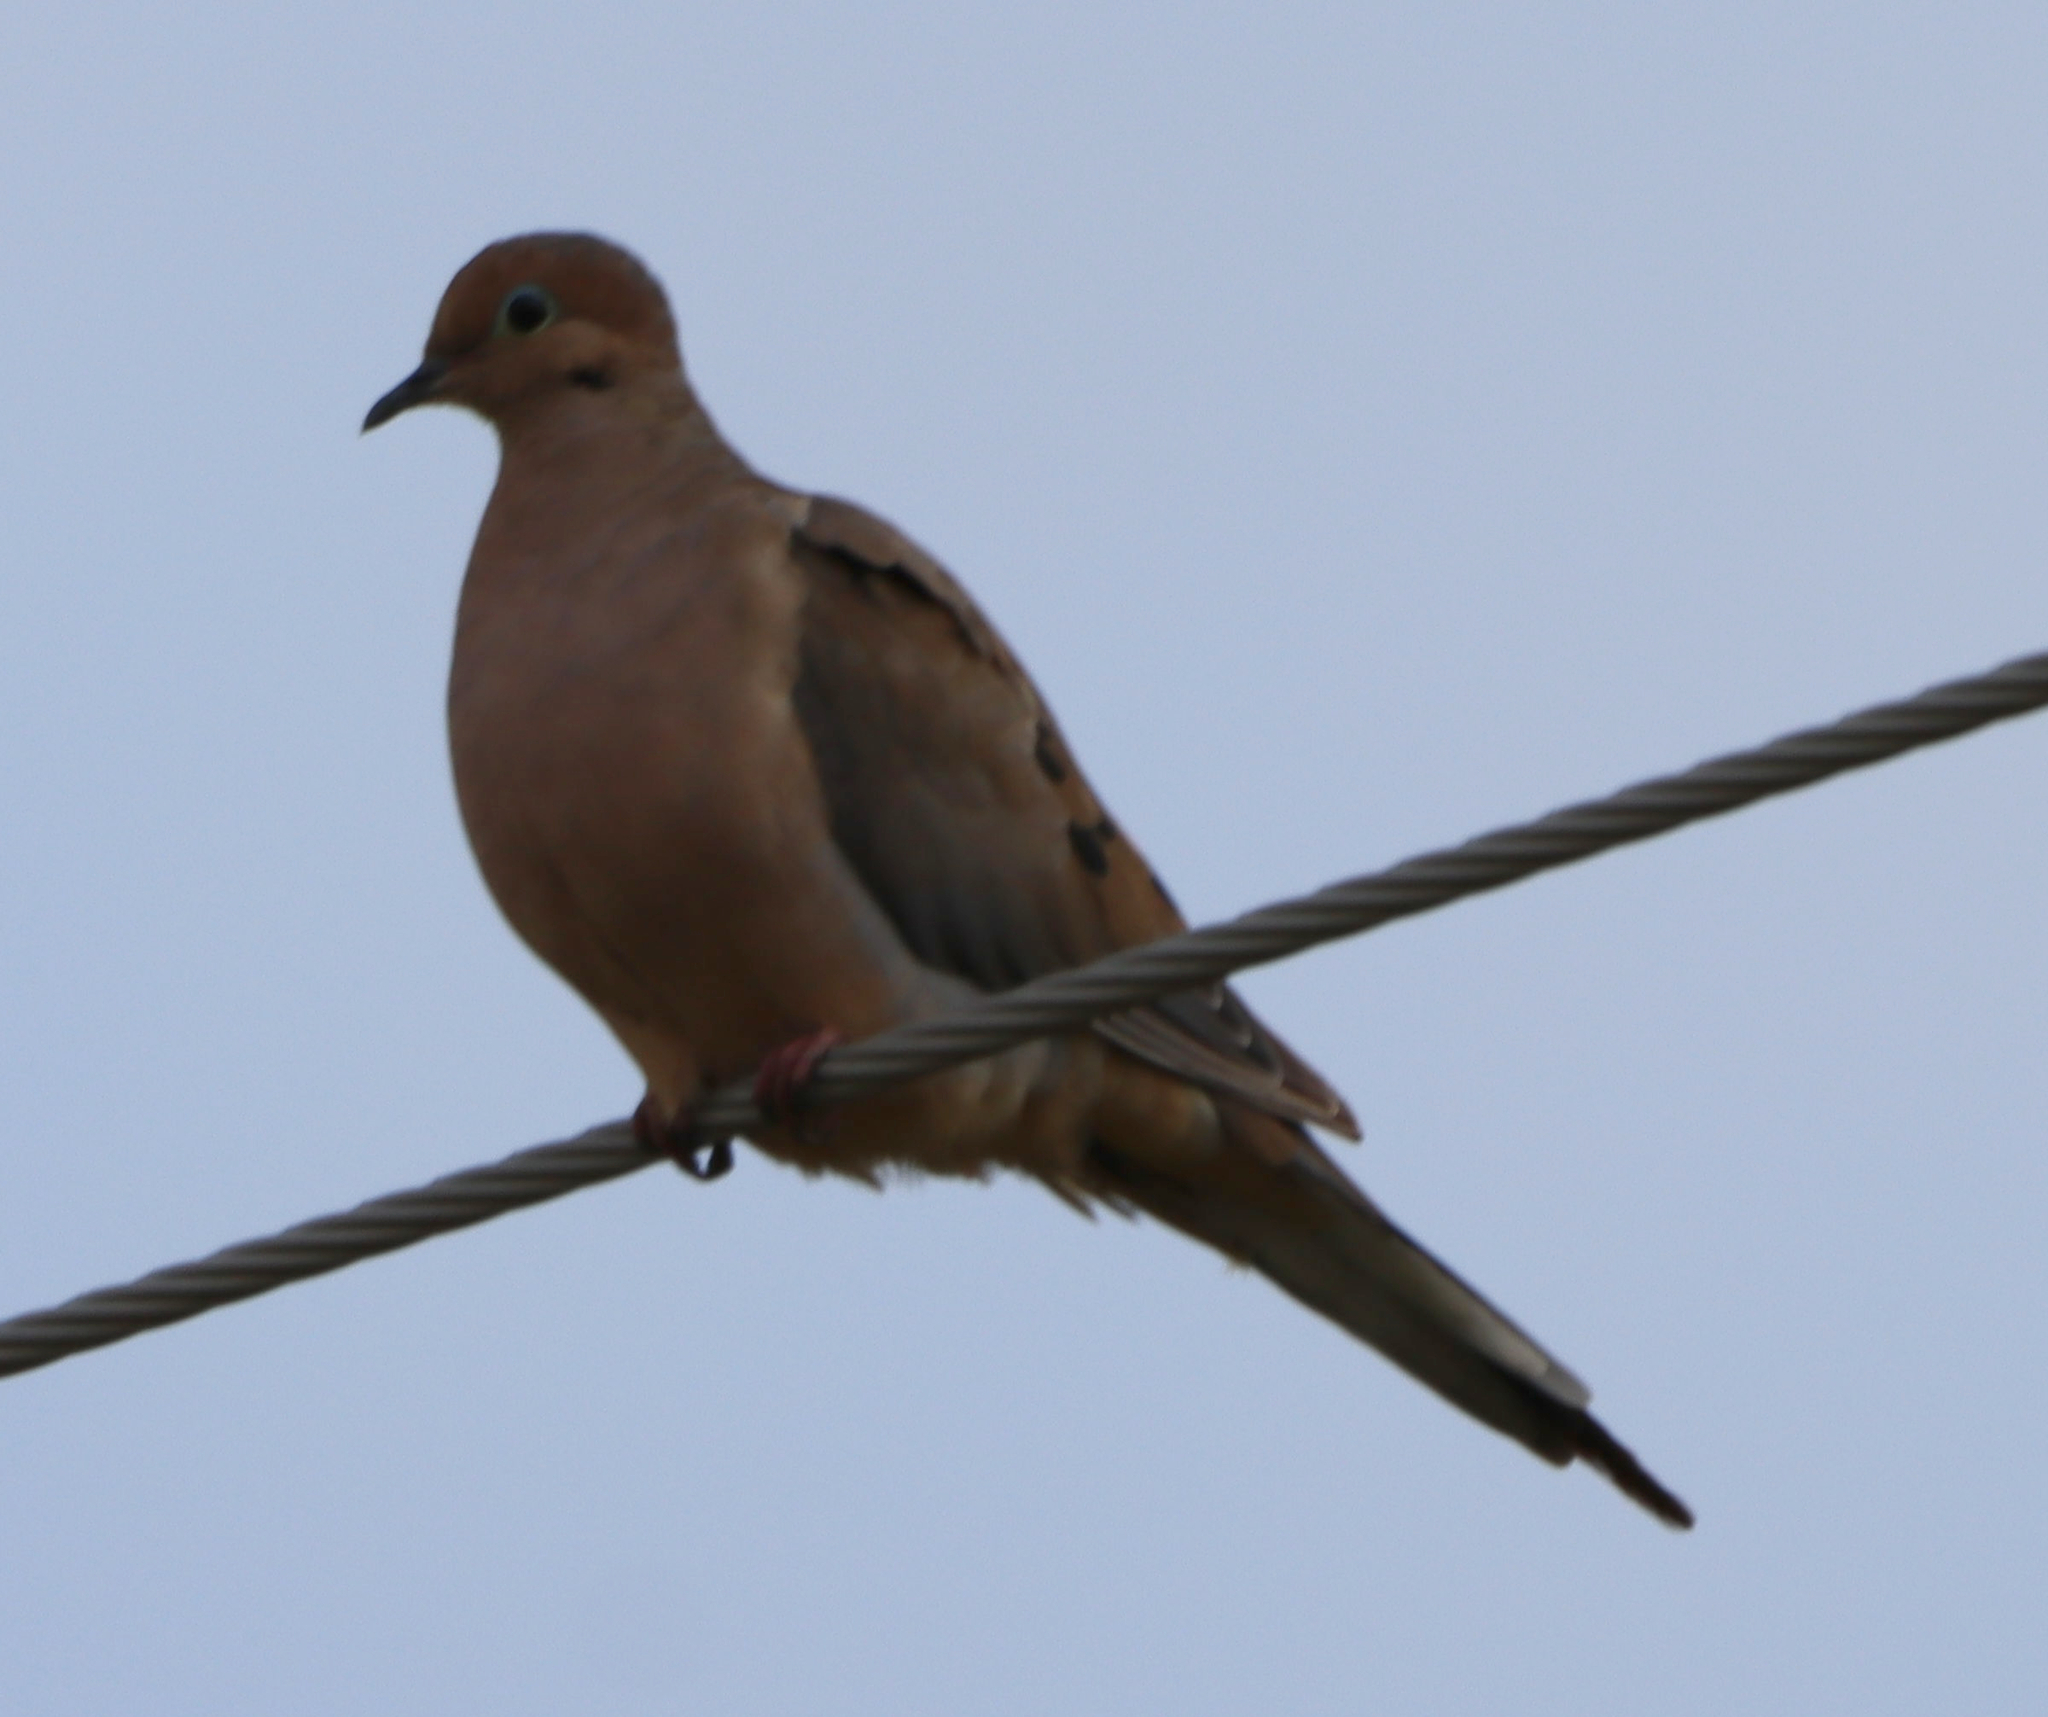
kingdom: Animalia
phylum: Chordata
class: Aves
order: Columbiformes
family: Columbidae
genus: Zenaida
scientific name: Zenaida macroura
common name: Mourning dove
